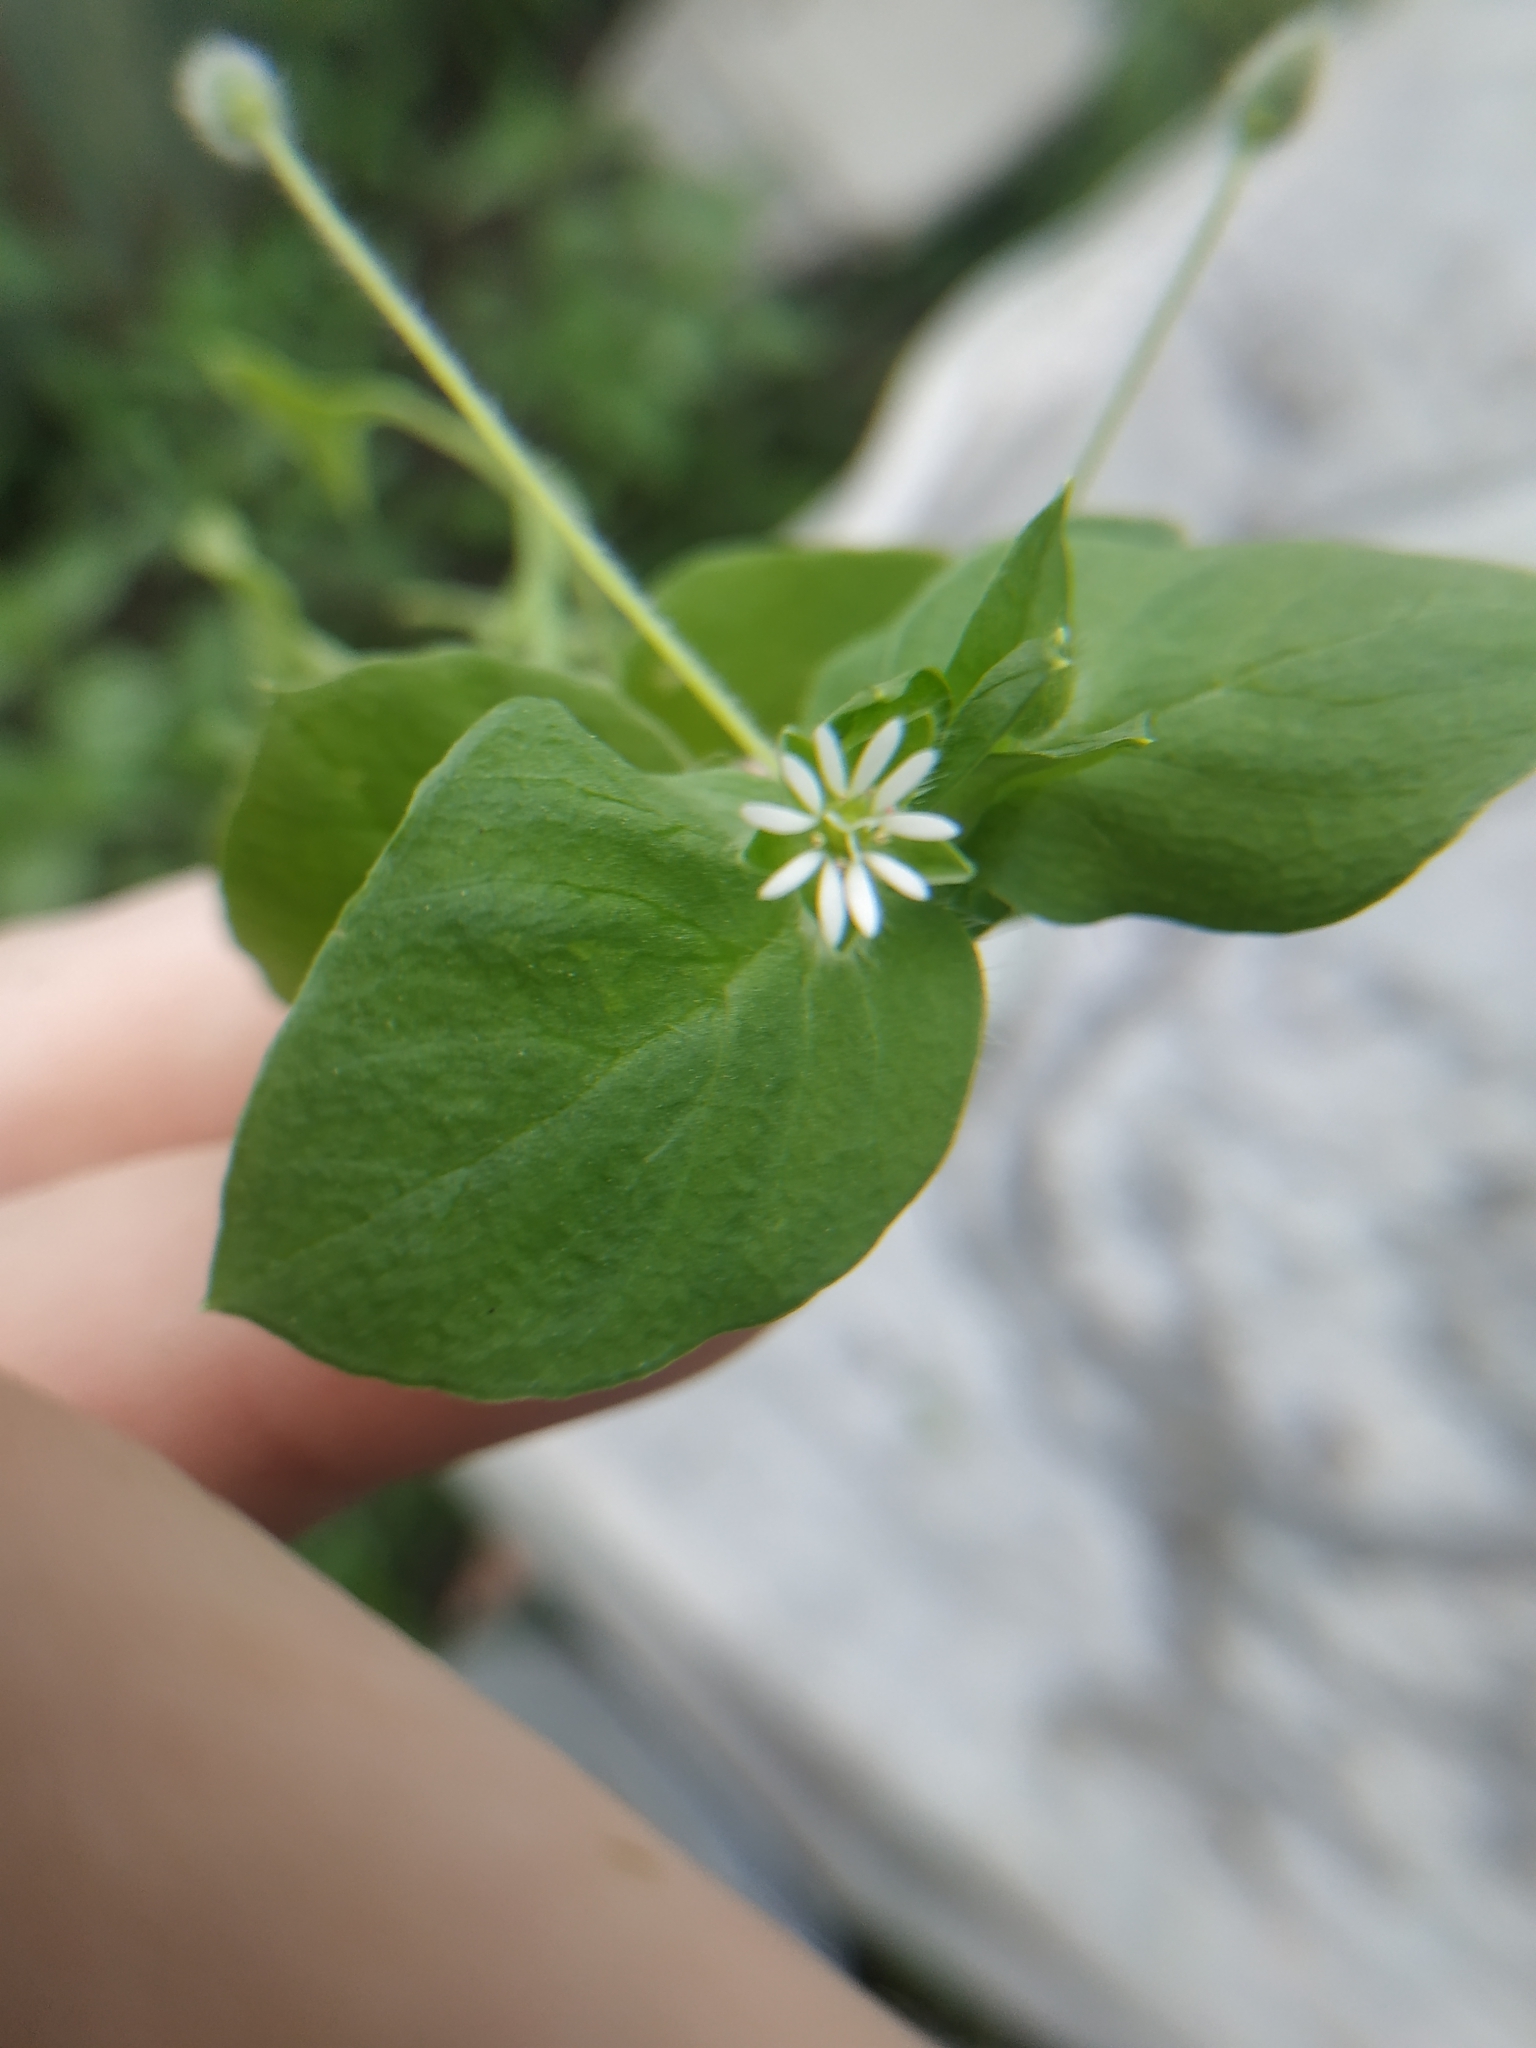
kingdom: Plantae
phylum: Tracheophyta
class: Magnoliopsida
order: Caryophyllales
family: Caryophyllaceae
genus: Stellaria
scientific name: Stellaria media
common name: Common chickweed
